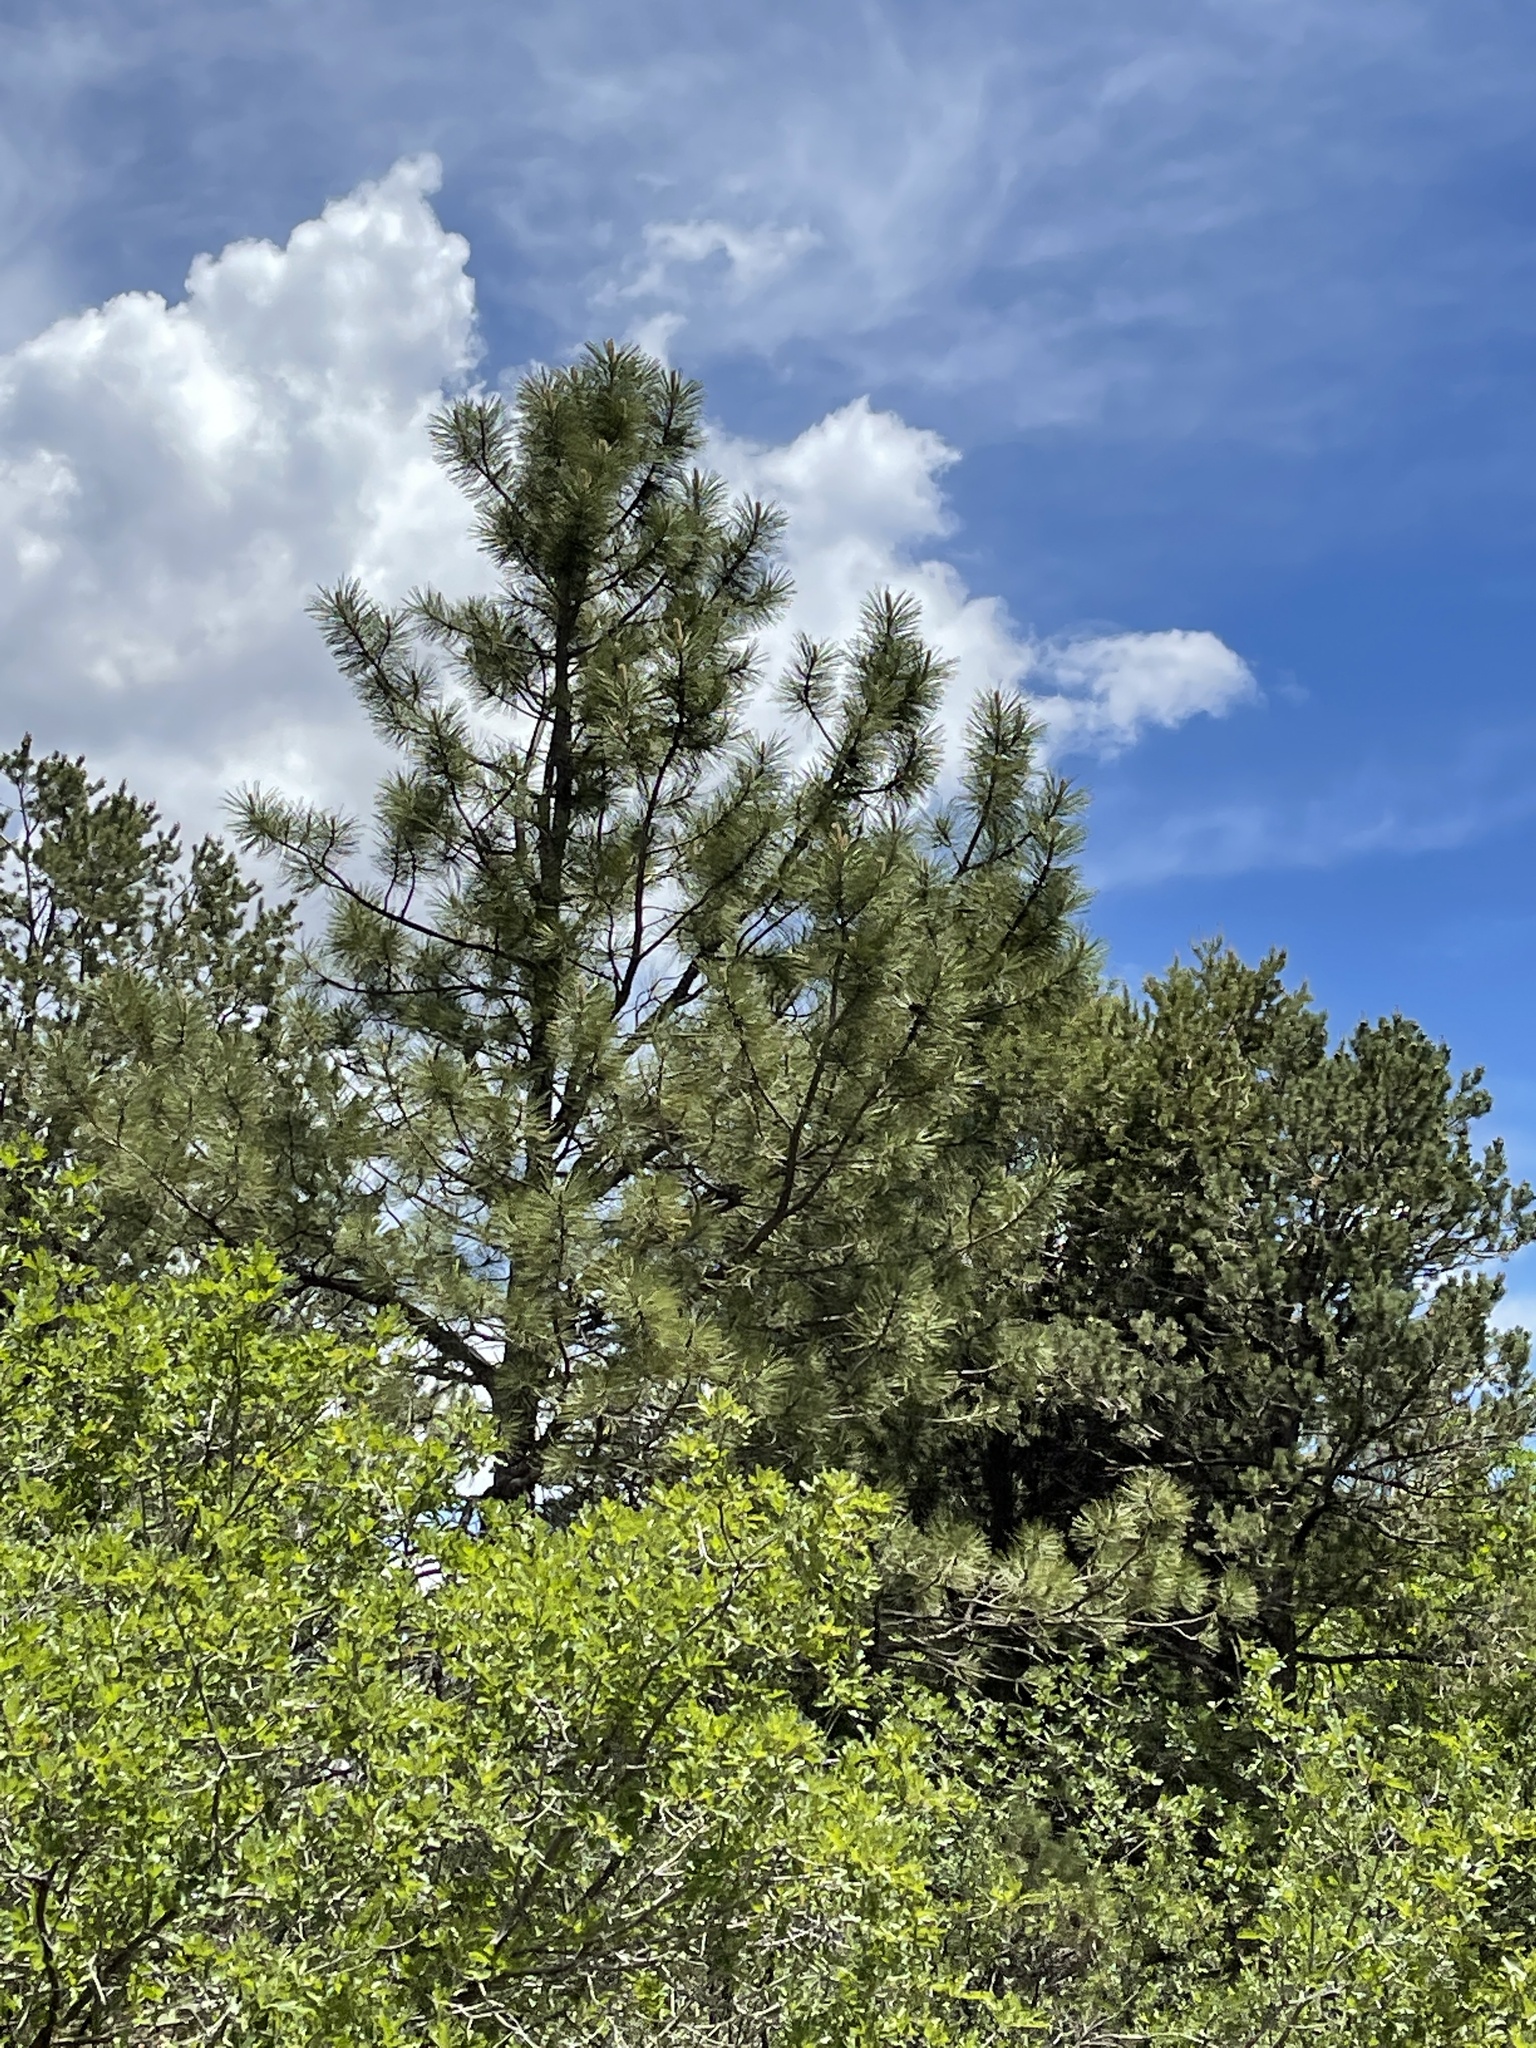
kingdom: Plantae
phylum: Tracheophyta
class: Pinopsida
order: Pinales
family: Pinaceae
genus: Pinus
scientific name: Pinus ponderosa
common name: Western yellow-pine
